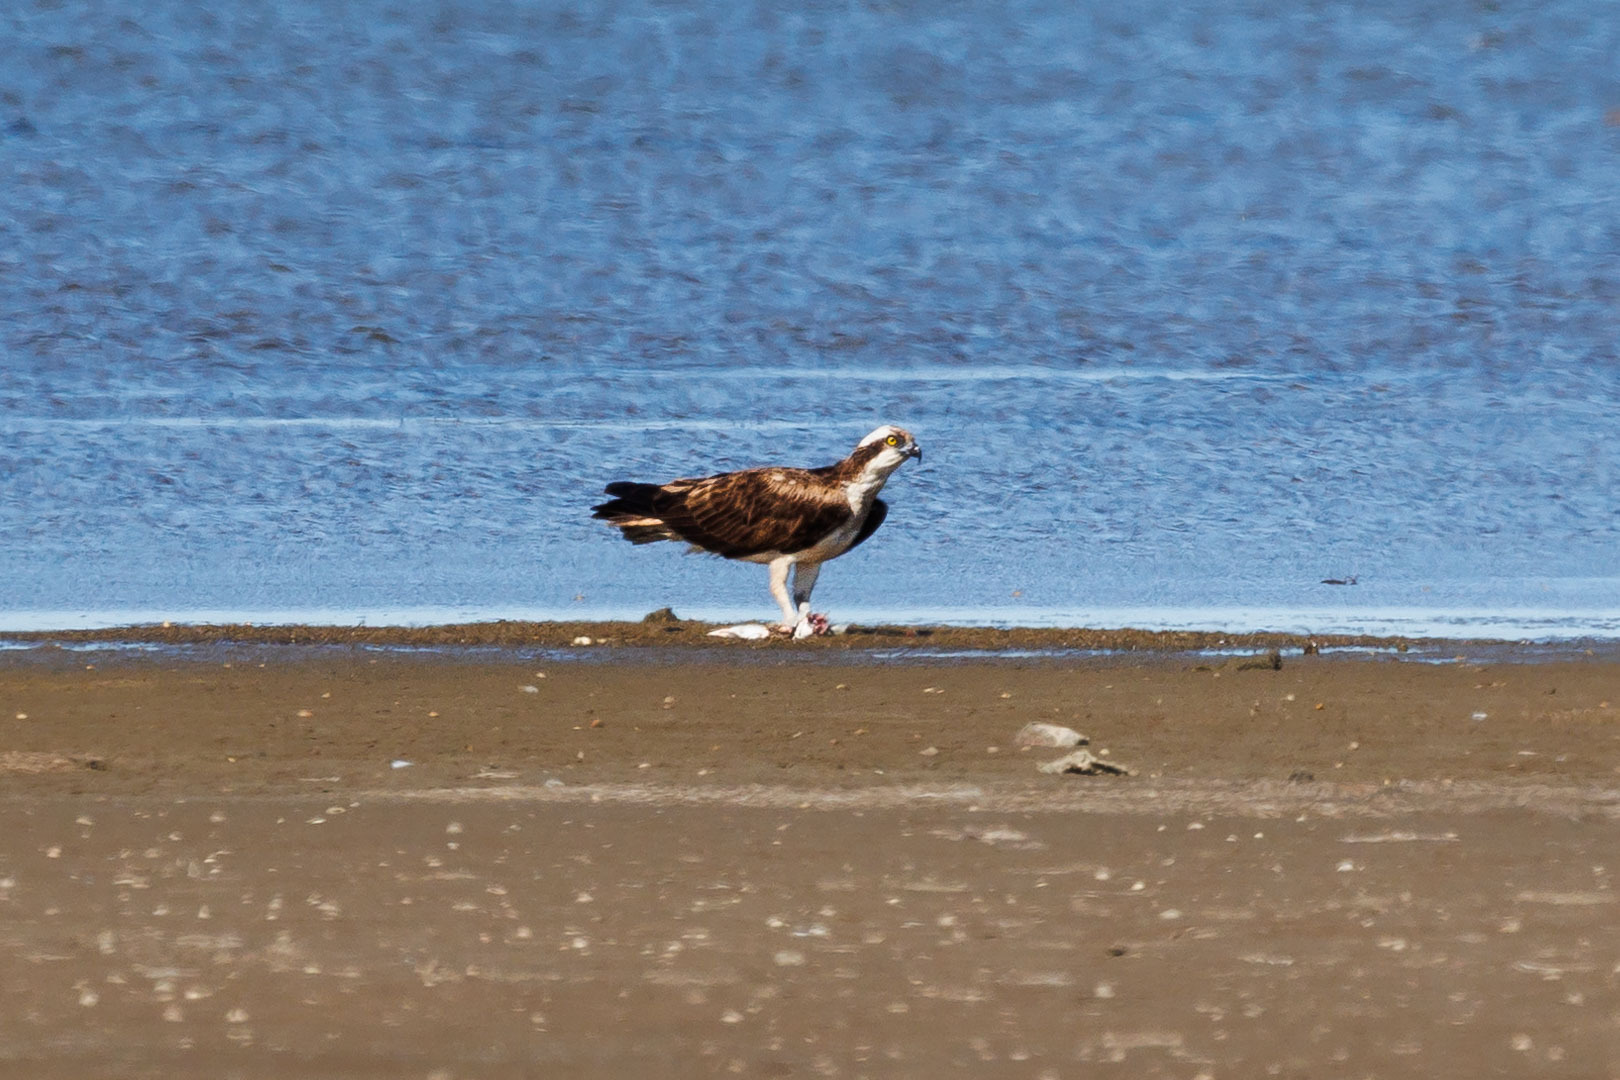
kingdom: Animalia
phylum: Chordata
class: Aves
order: Accipitriformes
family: Pandionidae
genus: Pandion
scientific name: Pandion haliaetus
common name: Osprey
